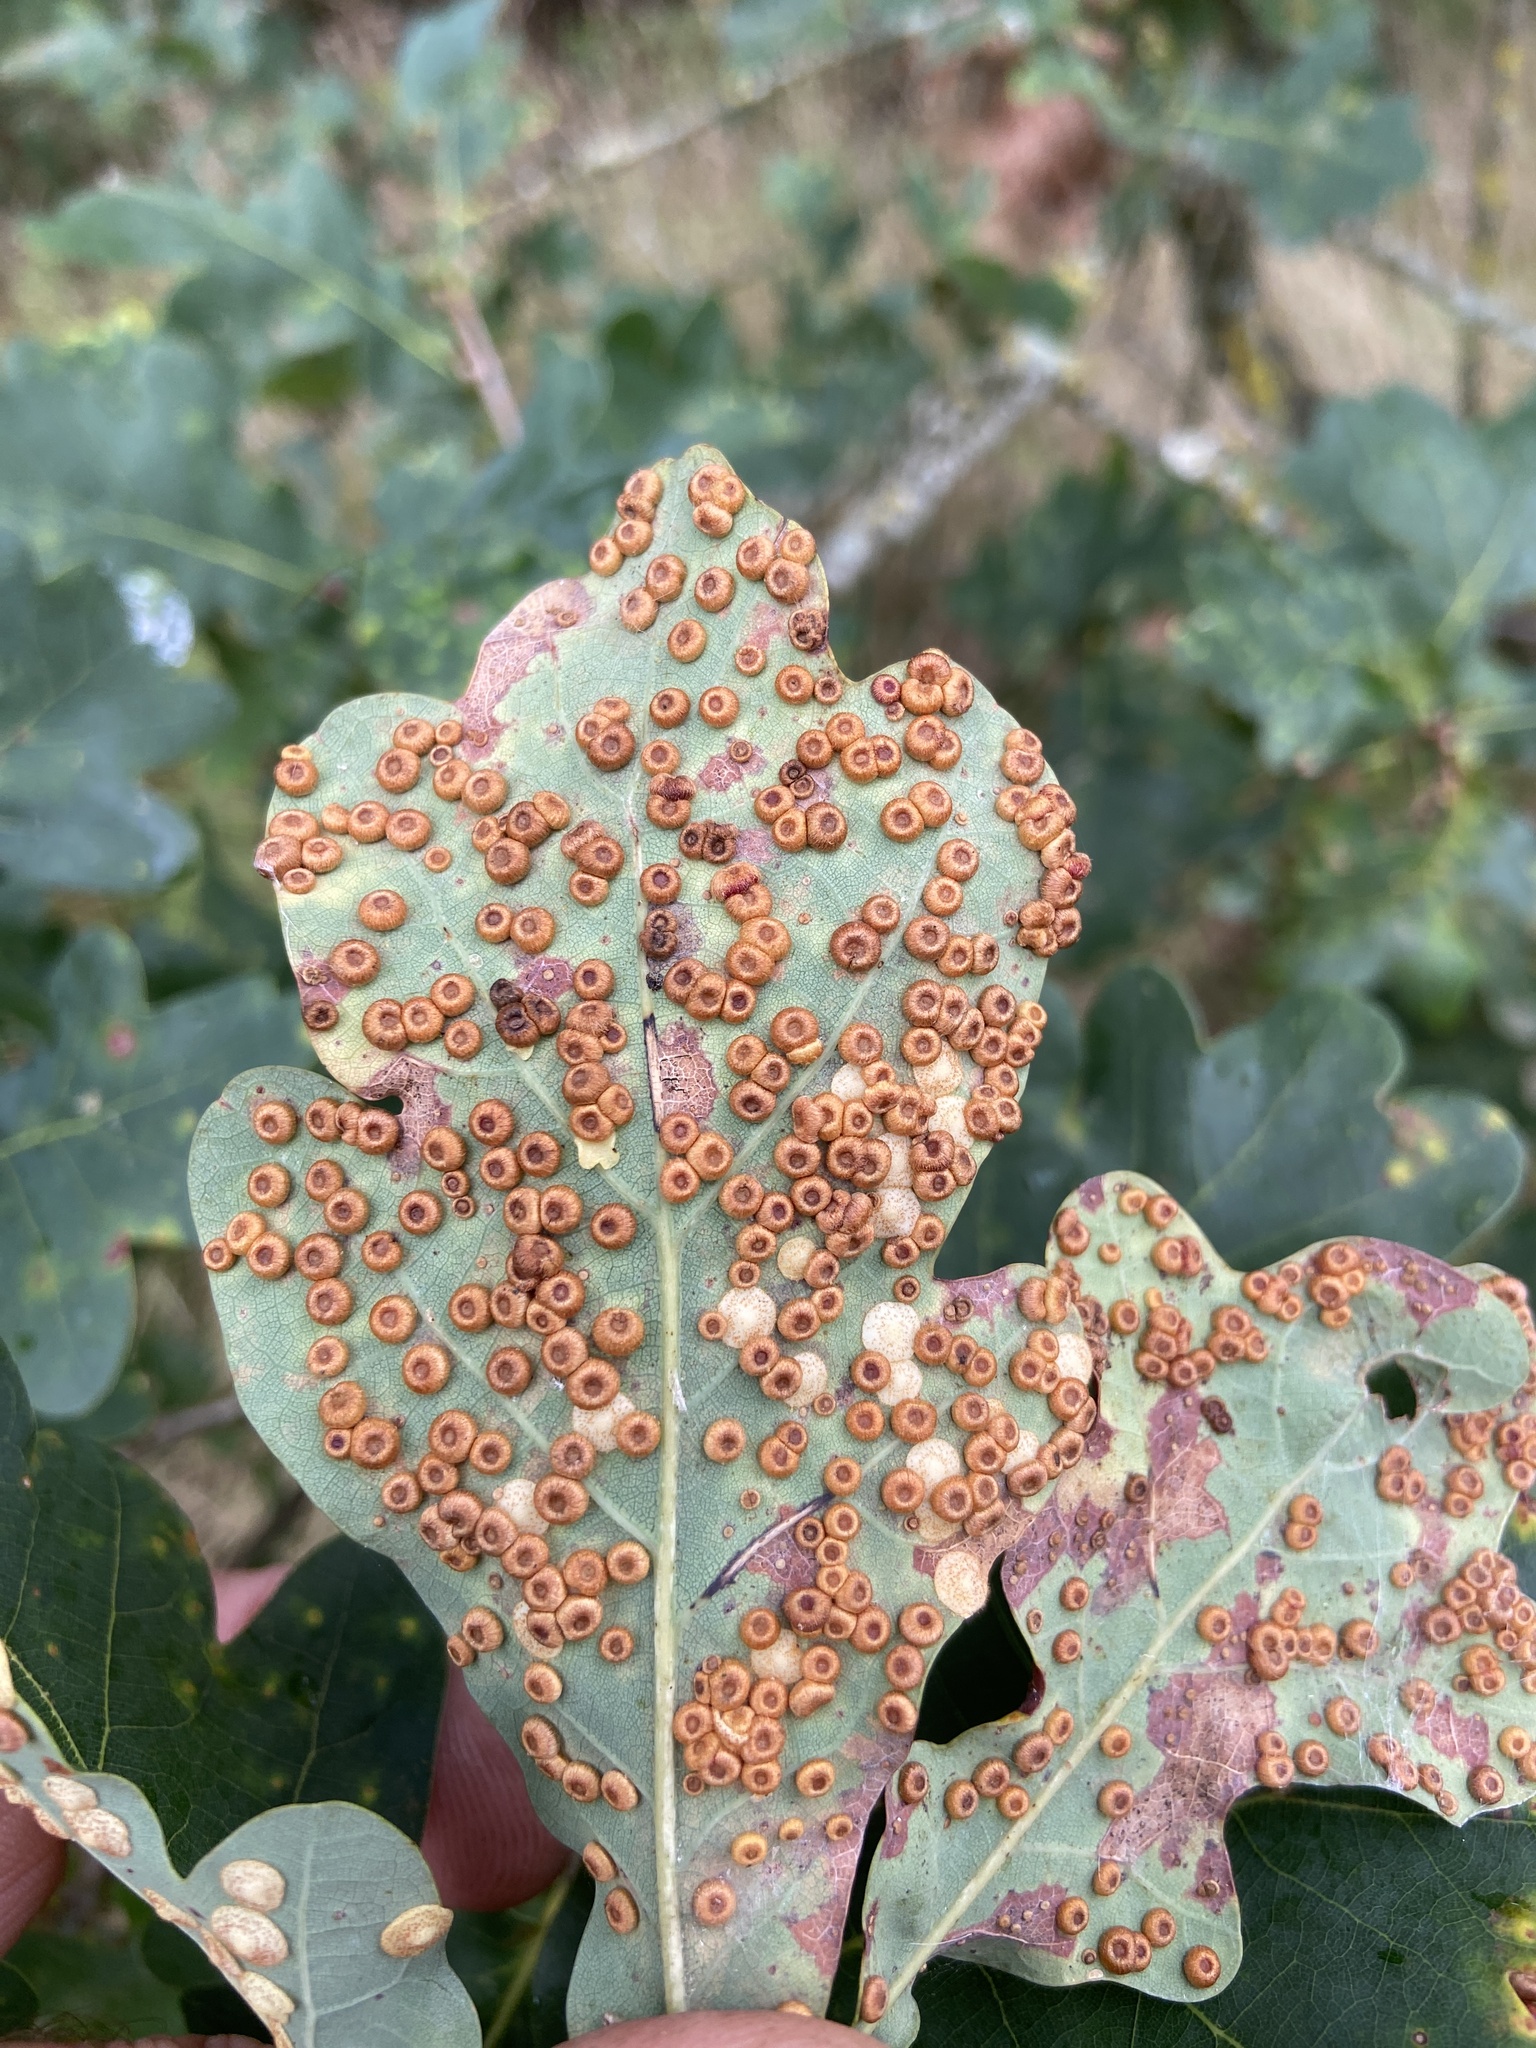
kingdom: Animalia
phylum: Arthropoda
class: Insecta
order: Hymenoptera
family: Cynipidae
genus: Neuroterus
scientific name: Neuroterus numismalis
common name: Silk-button spangle gall
